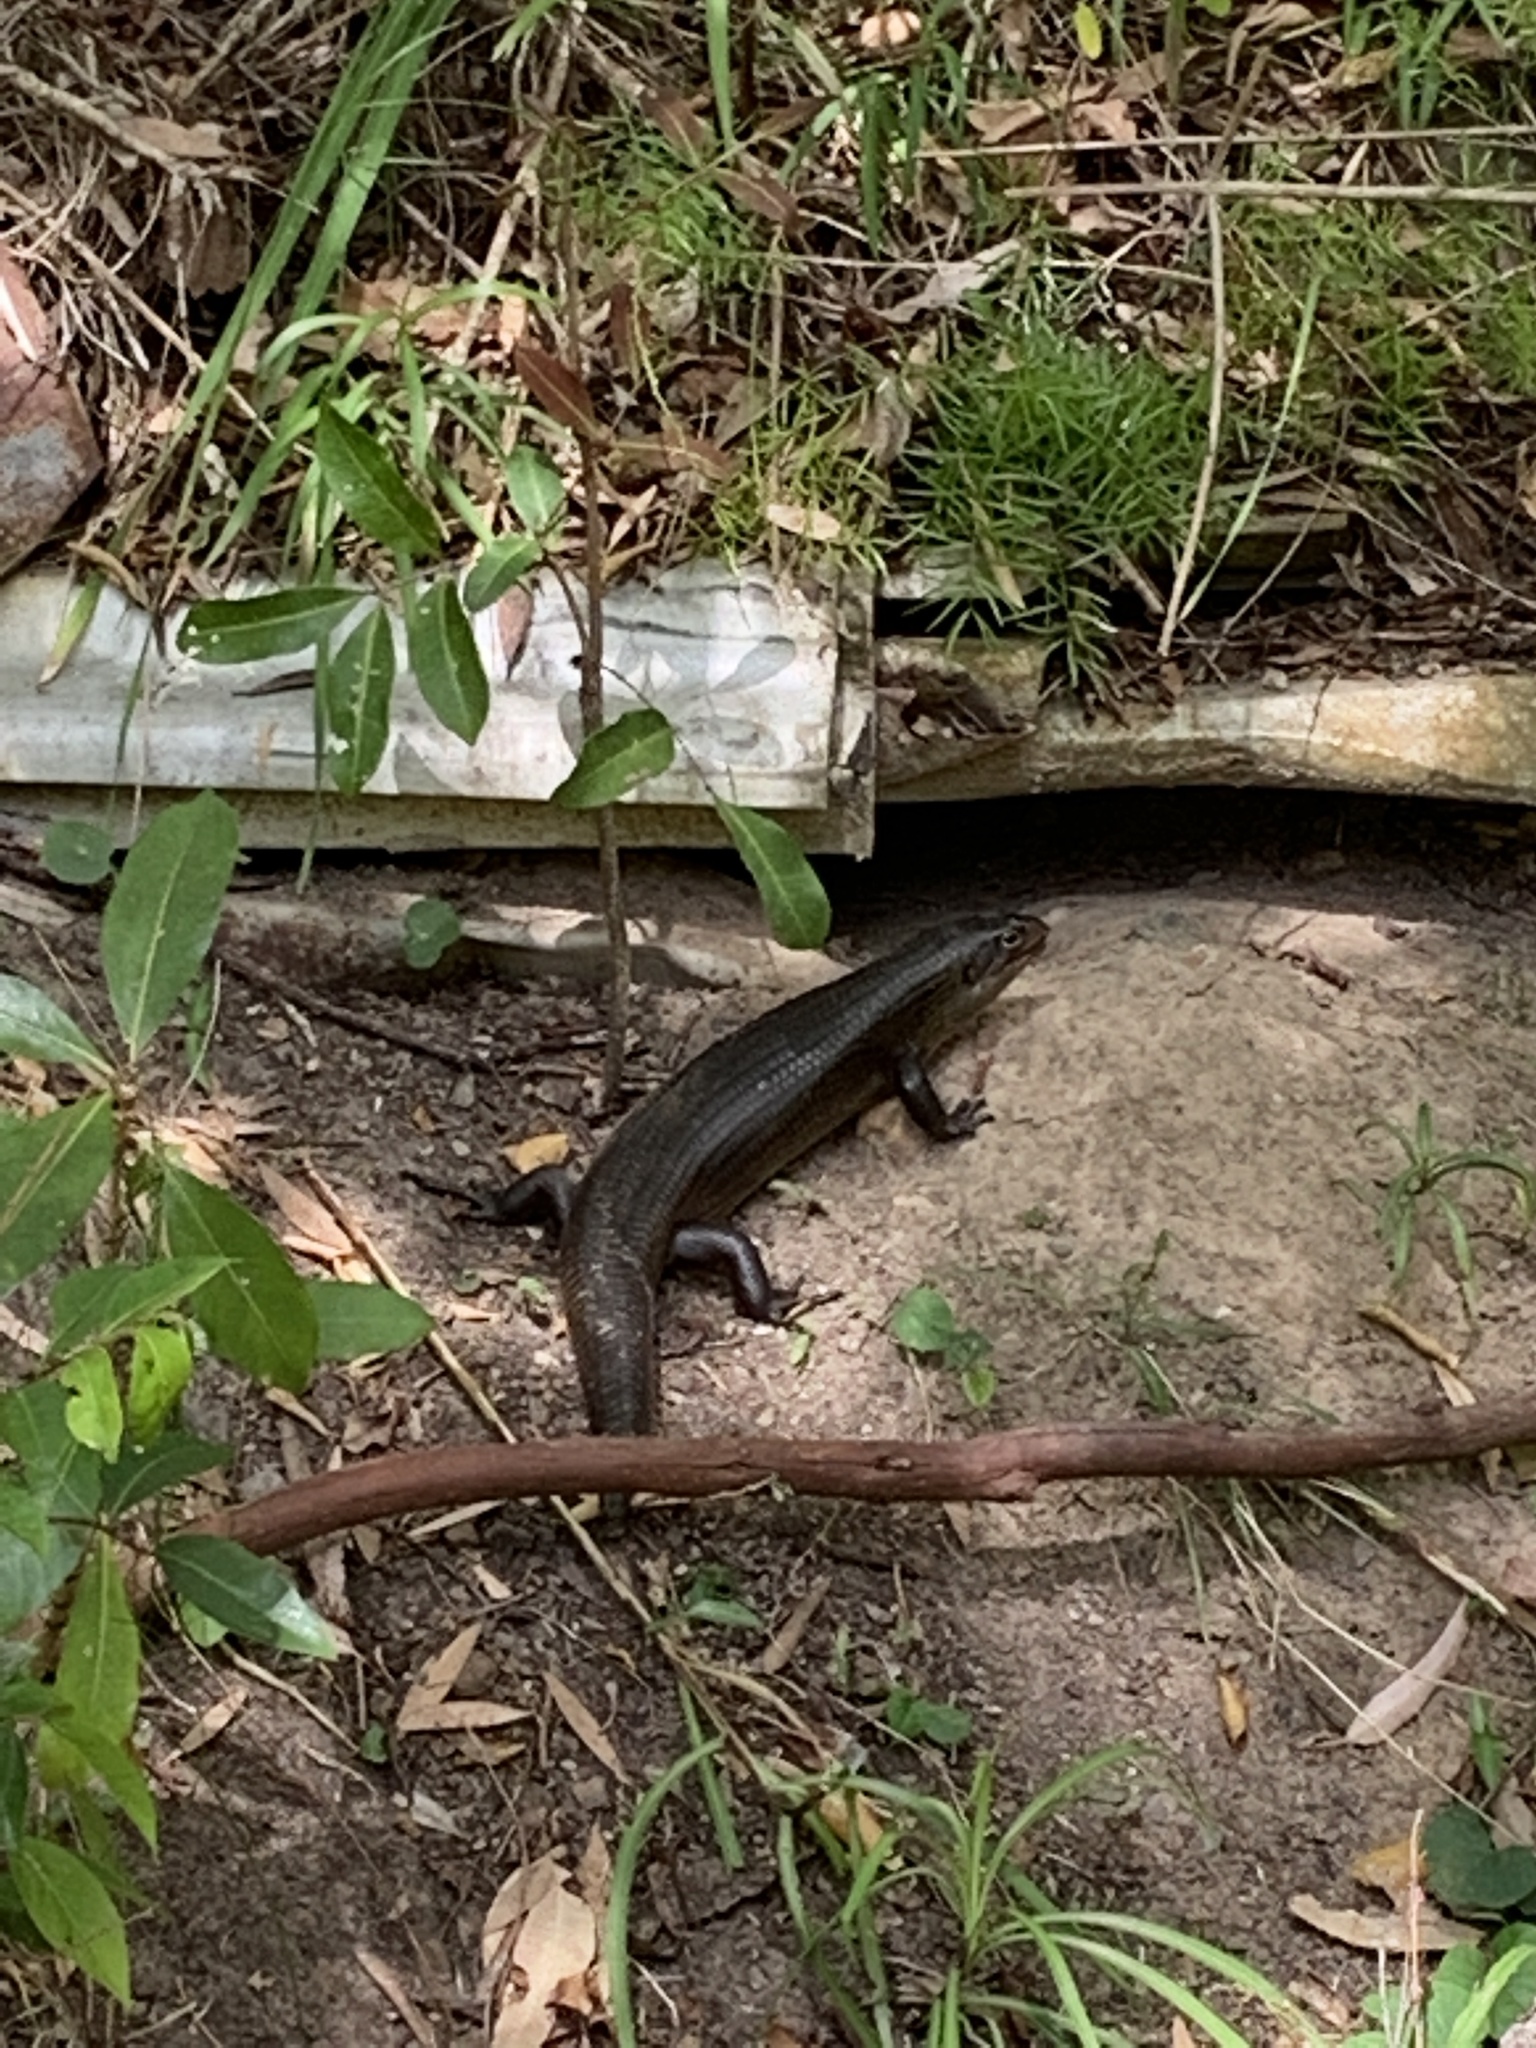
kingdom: Animalia
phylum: Chordata
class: Squamata
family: Scincidae
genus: Bellatorias
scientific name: Bellatorias major
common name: Land mullet
